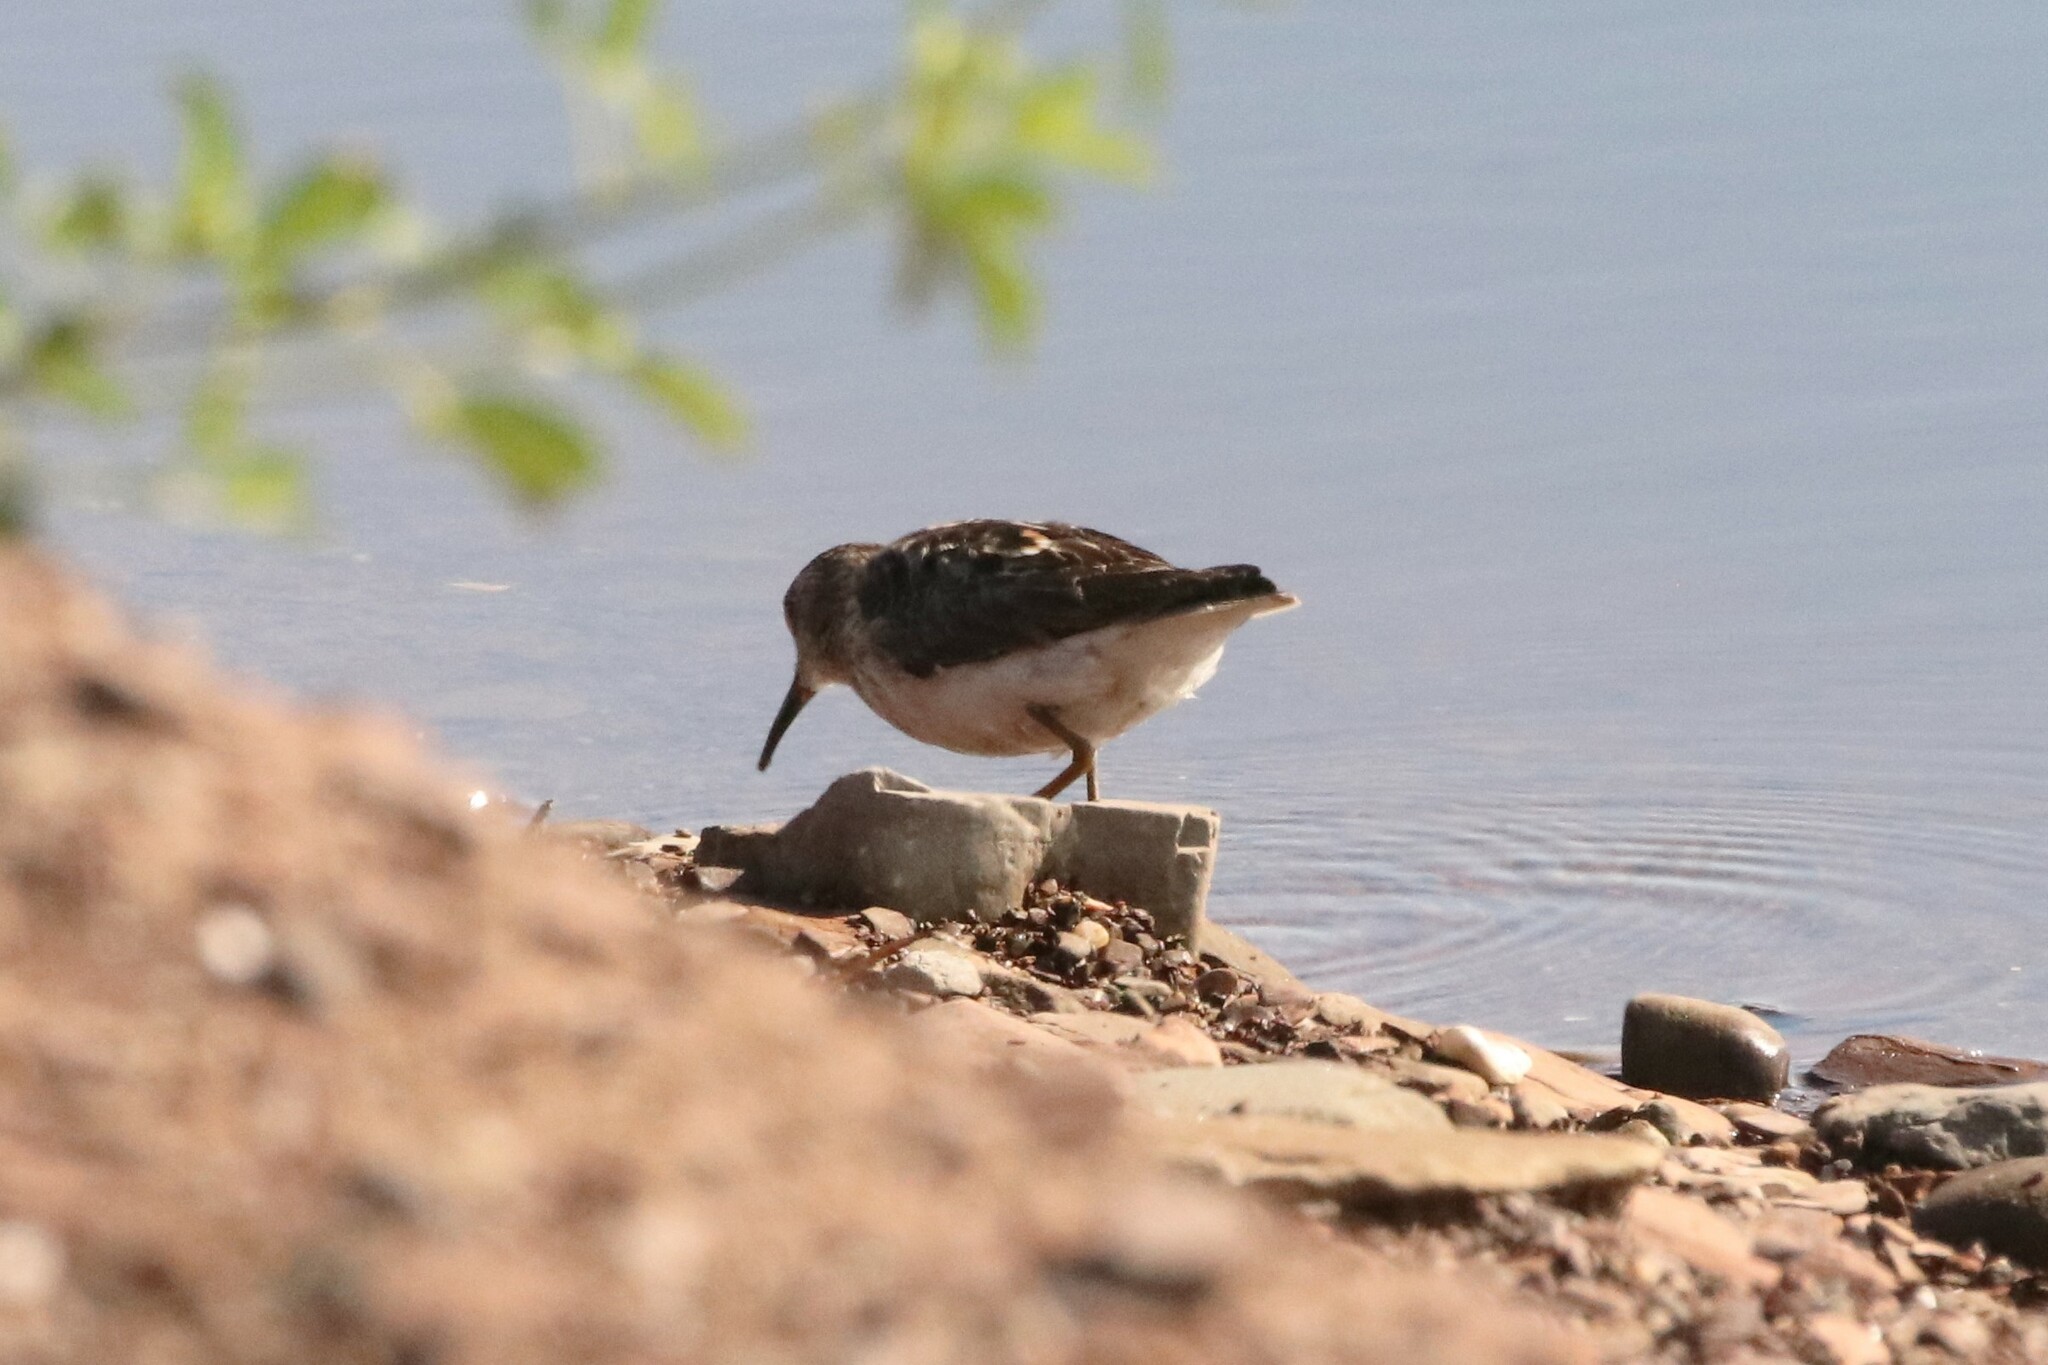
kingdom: Animalia
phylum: Chordata
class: Aves
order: Charadriiformes
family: Scolopacidae
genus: Calidris
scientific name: Calidris minutilla
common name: Least sandpiper
